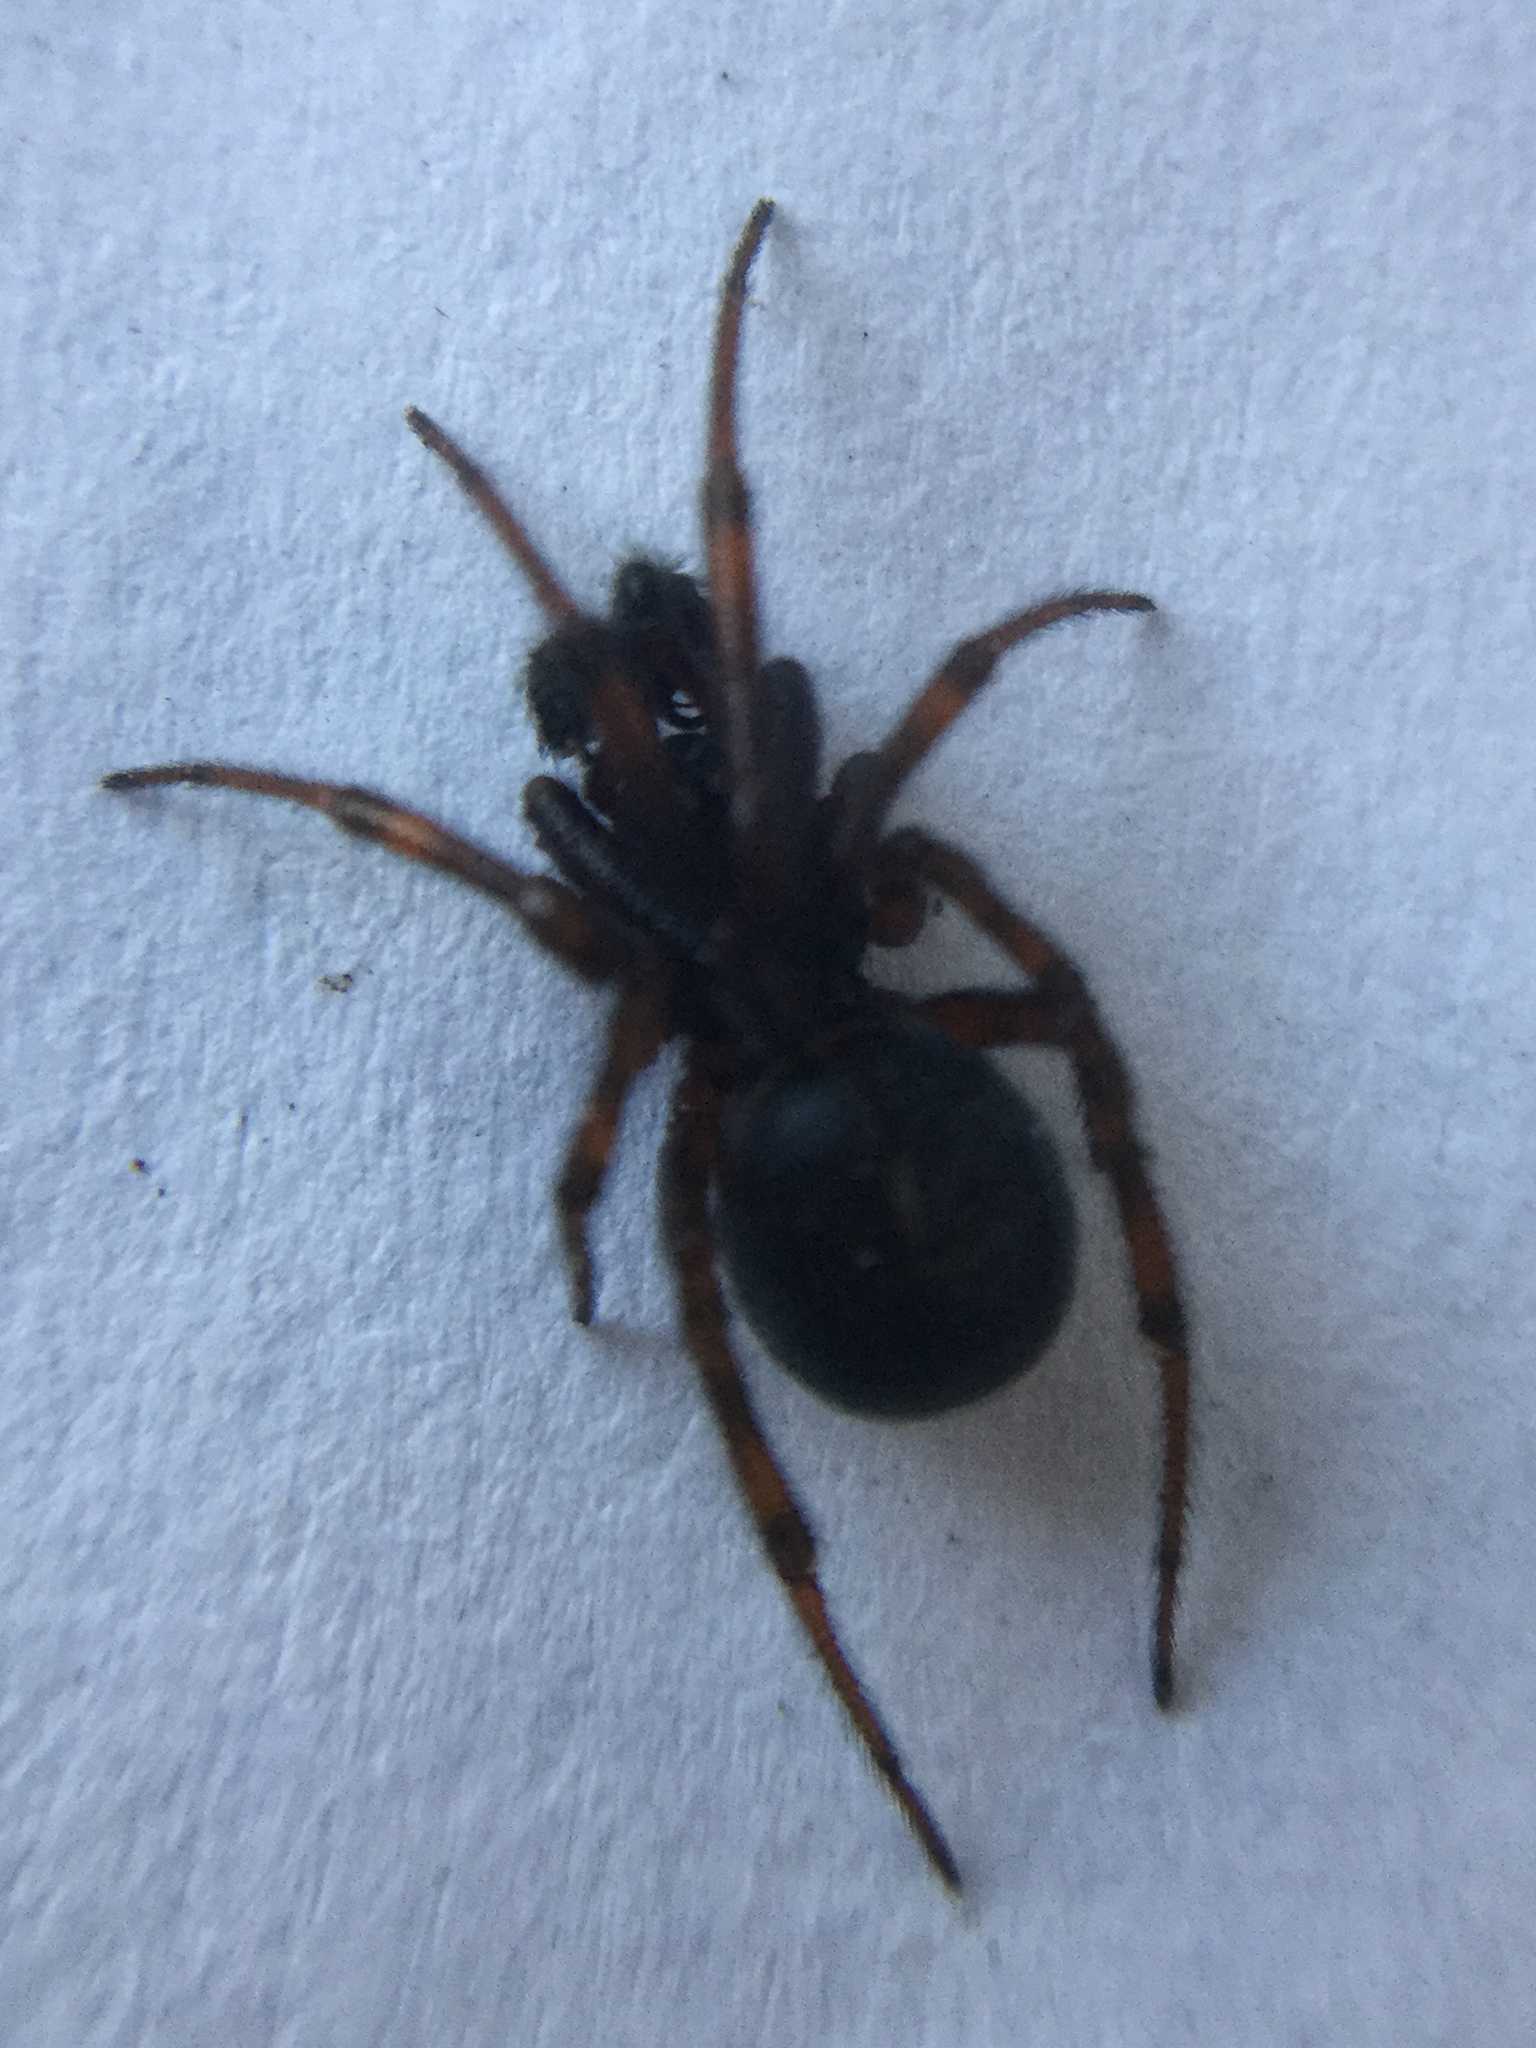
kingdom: Animalia
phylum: Arthropoda
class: Arachnida
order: Araneae
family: Theridiidae
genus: Steatoda
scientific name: Steatoda borealis
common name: Boreal combfoot
